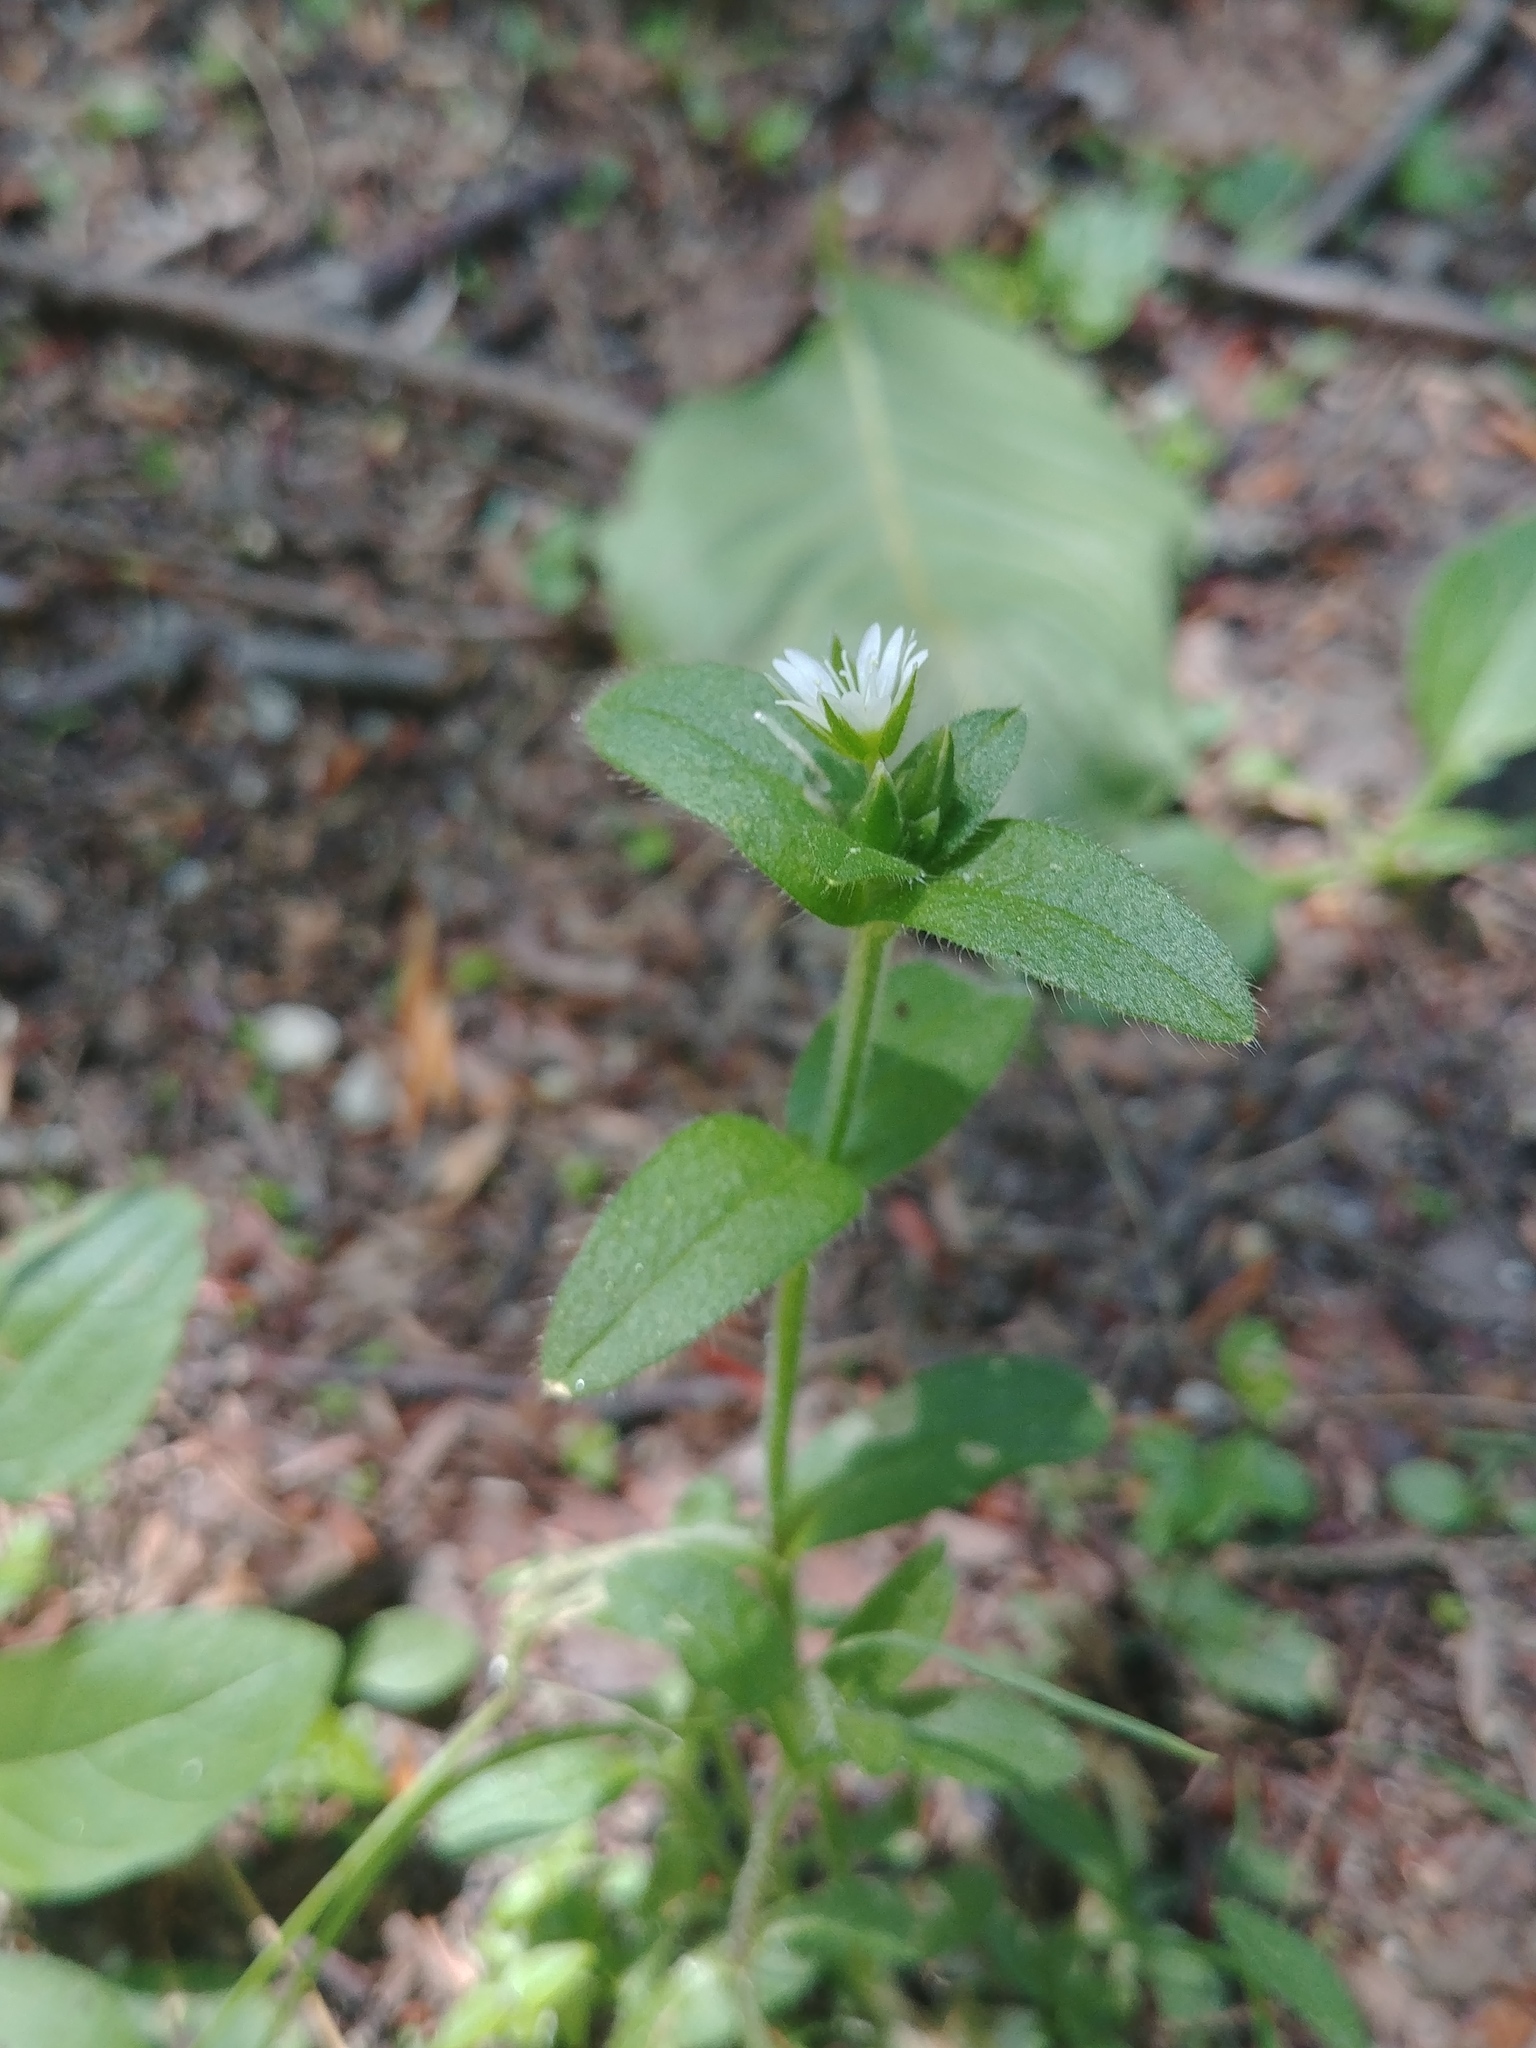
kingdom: Plantae
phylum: Tracheophyta
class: Magnoliopsida
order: Caryophyllales
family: Caryophyllaceae
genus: Cerastium
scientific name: Cerastium fontanum
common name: Common mouse-ear
